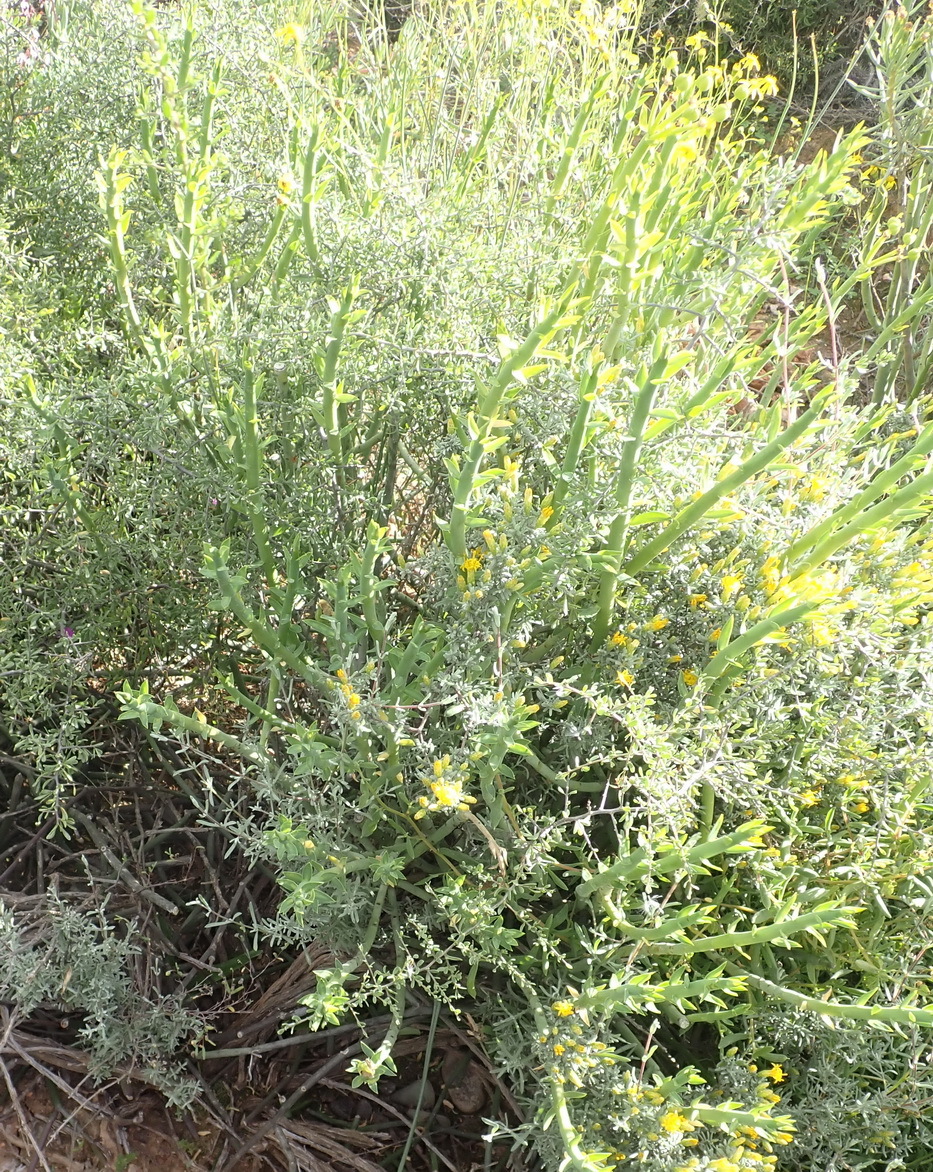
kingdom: Plantae
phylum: Tracheophyta
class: Magnoliopsida
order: Malpighiales
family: Euphorbiaceae
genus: Euphorbia
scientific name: Euphorbia mauritanica
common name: Jackal's-food
